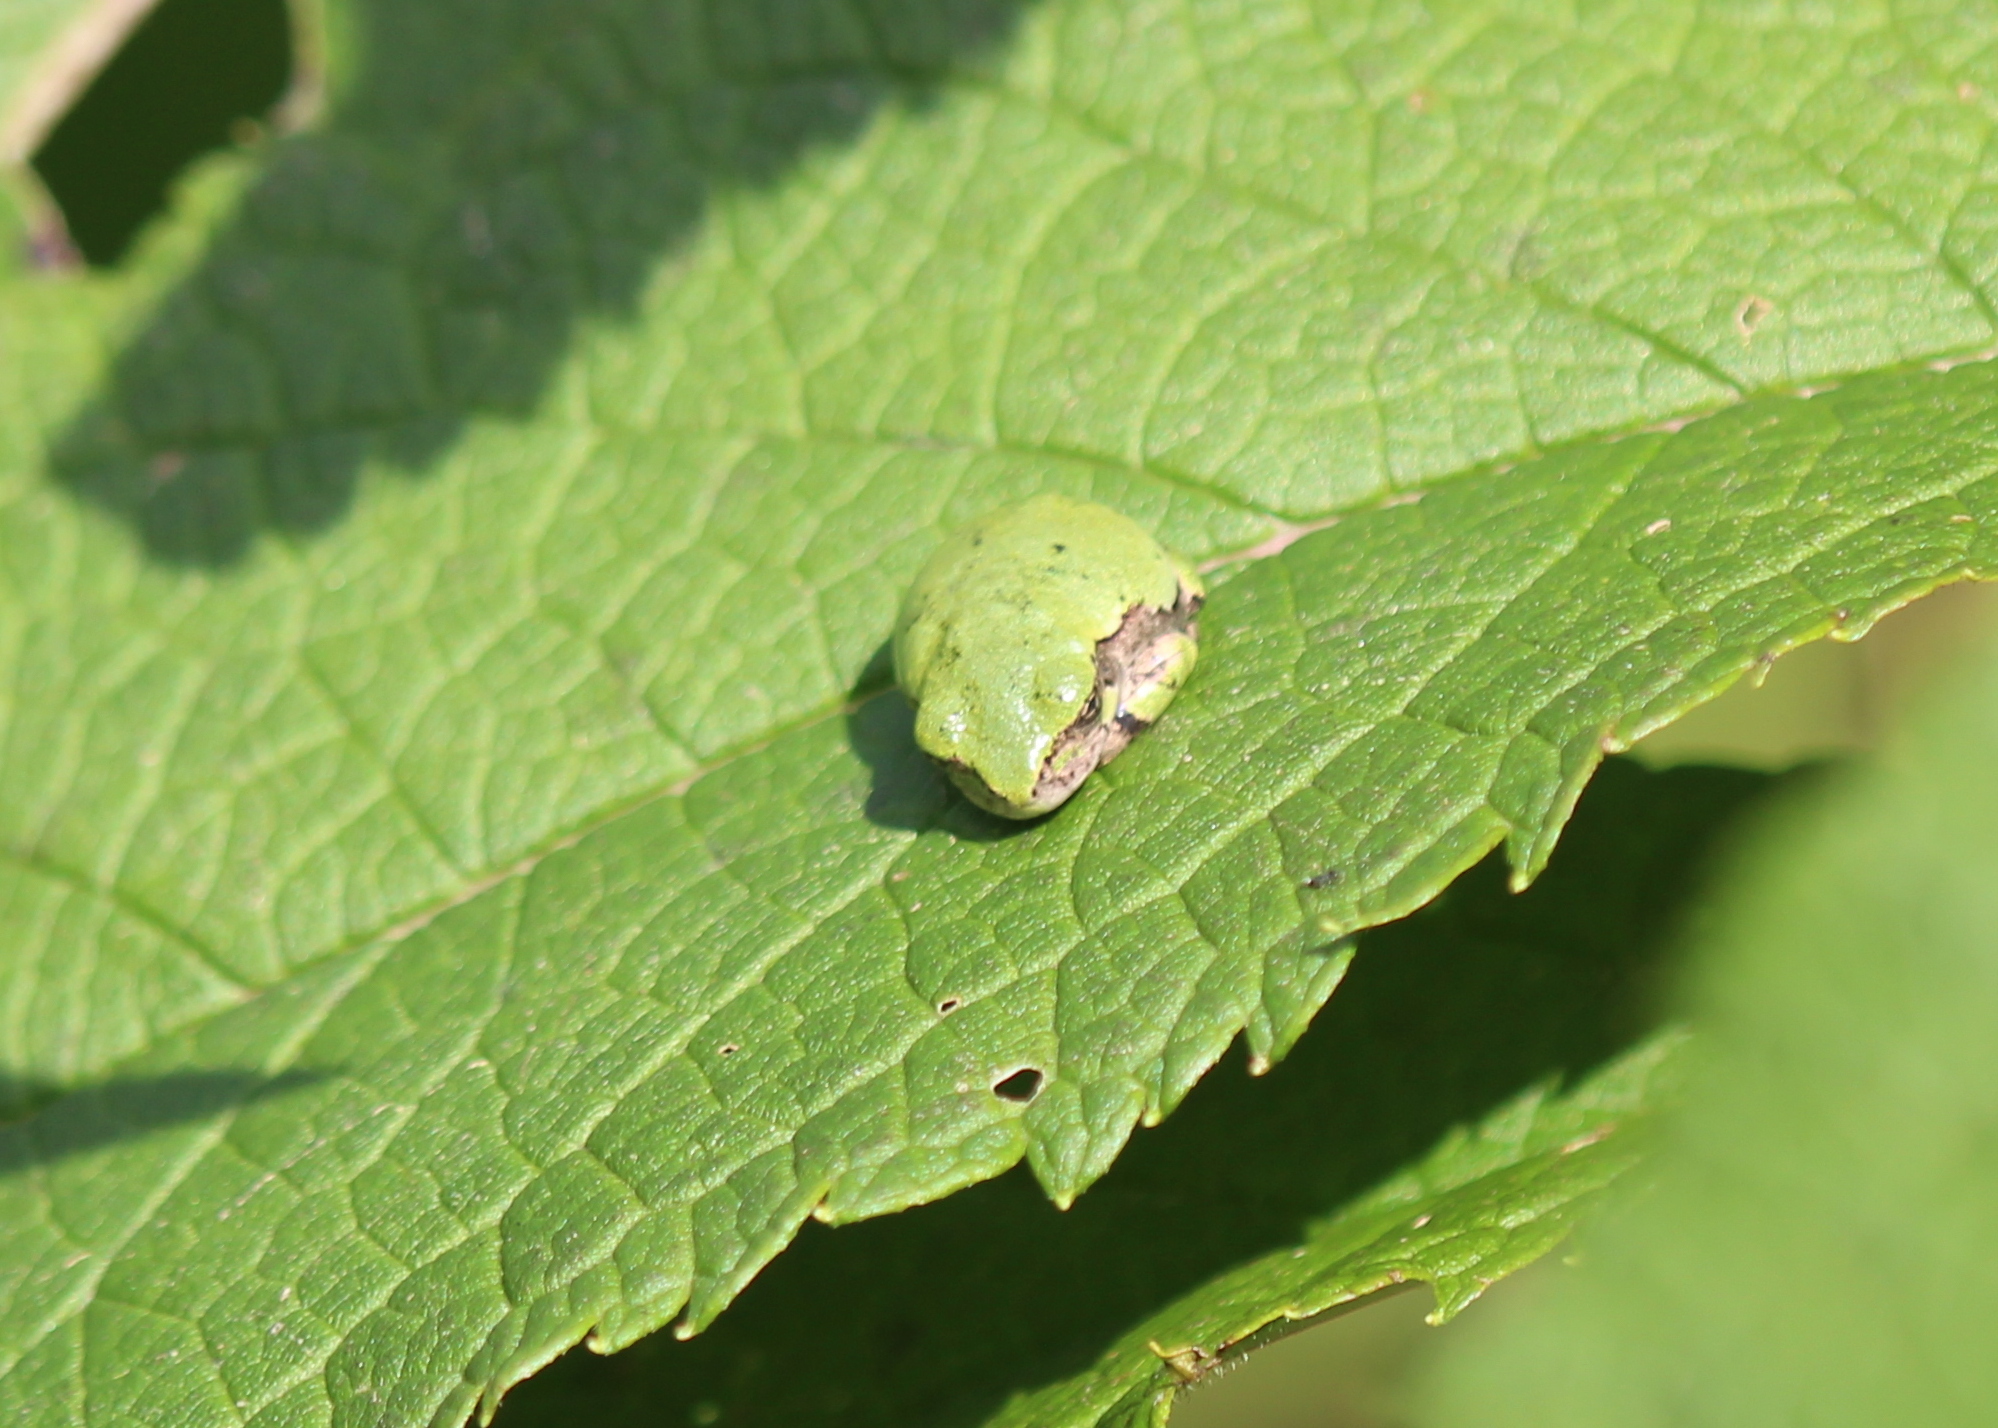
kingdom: Animalia
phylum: Chordata
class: Amphibia
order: Anura
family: Hylidae
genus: Dryophytes
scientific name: Dryophytes versicolor
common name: Gray treefrog
